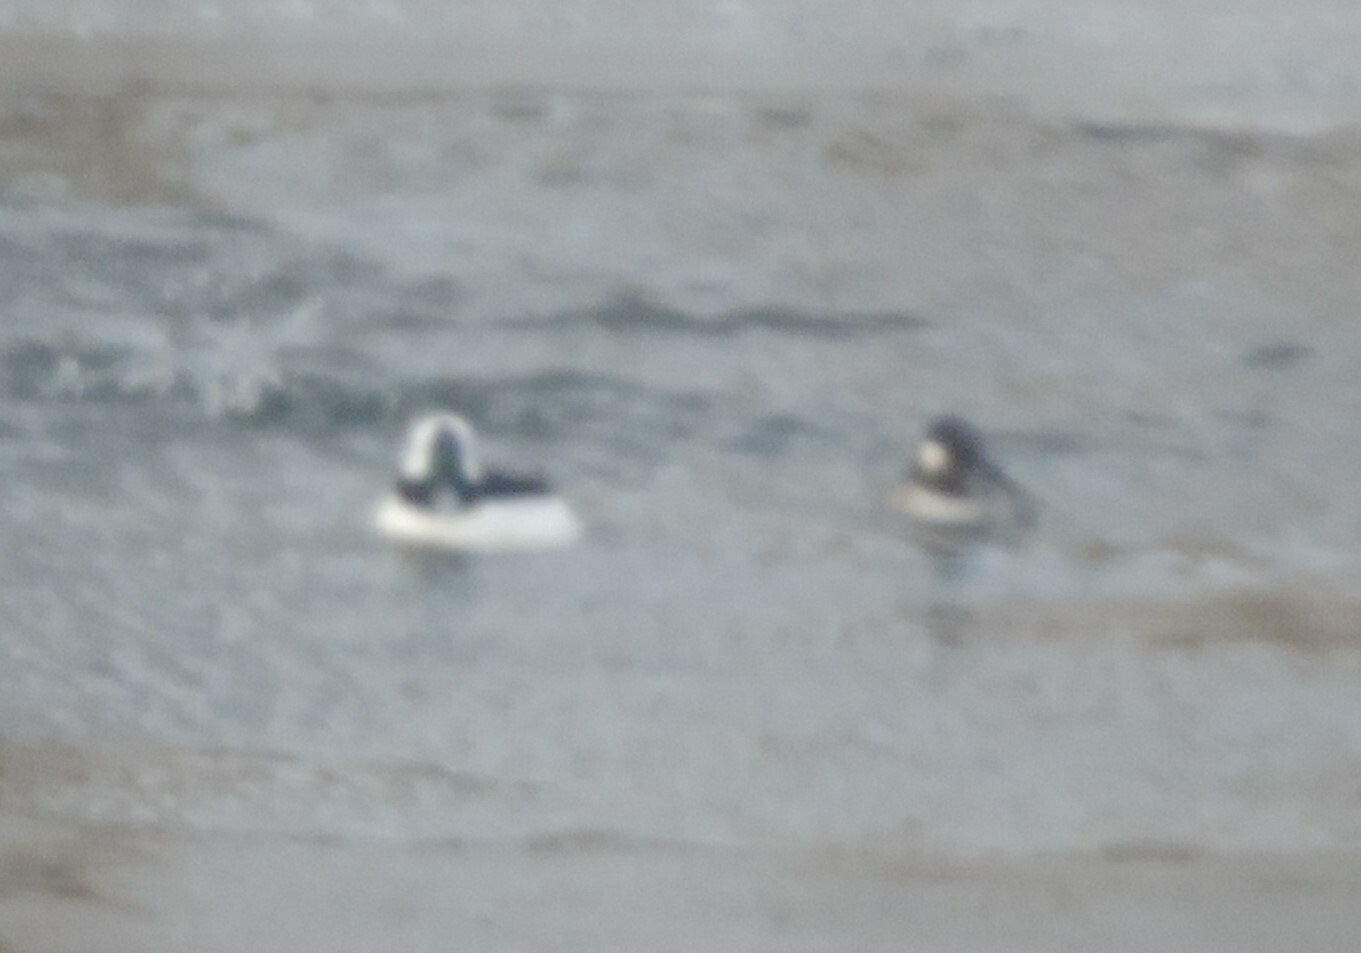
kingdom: Animalia
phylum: Chordata
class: Aves
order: Anseriformes
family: Anatidae
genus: Bucephala
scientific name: Bucephala albeola
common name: Bufflehead
